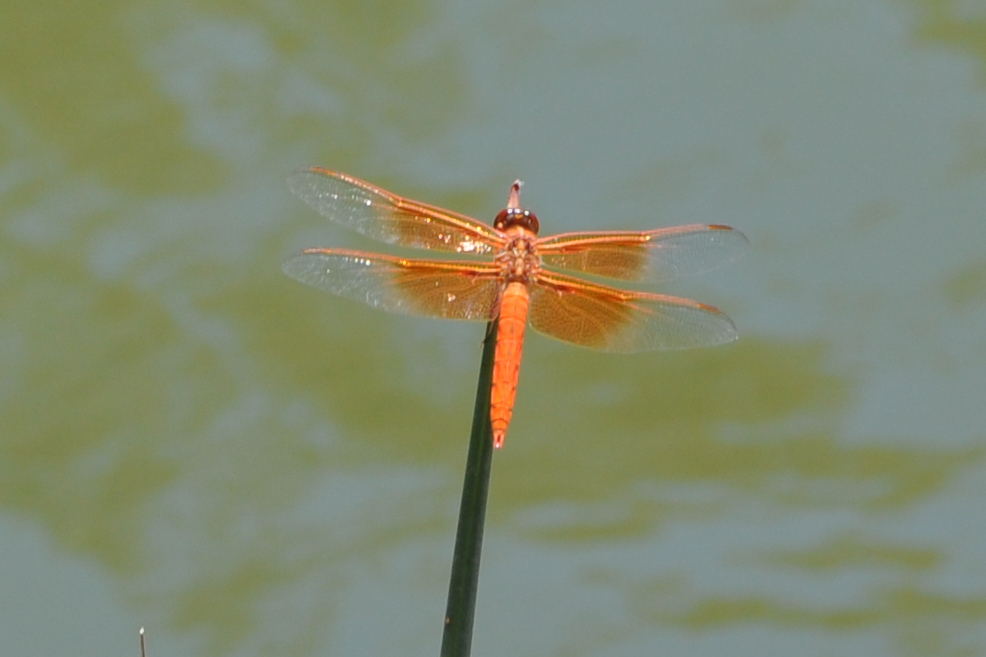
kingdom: Animalia
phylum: Arthropoda
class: Insecta
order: Odonata
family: Libellulidae
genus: Libellula
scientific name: Libellula saturata
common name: Flame skimmer
